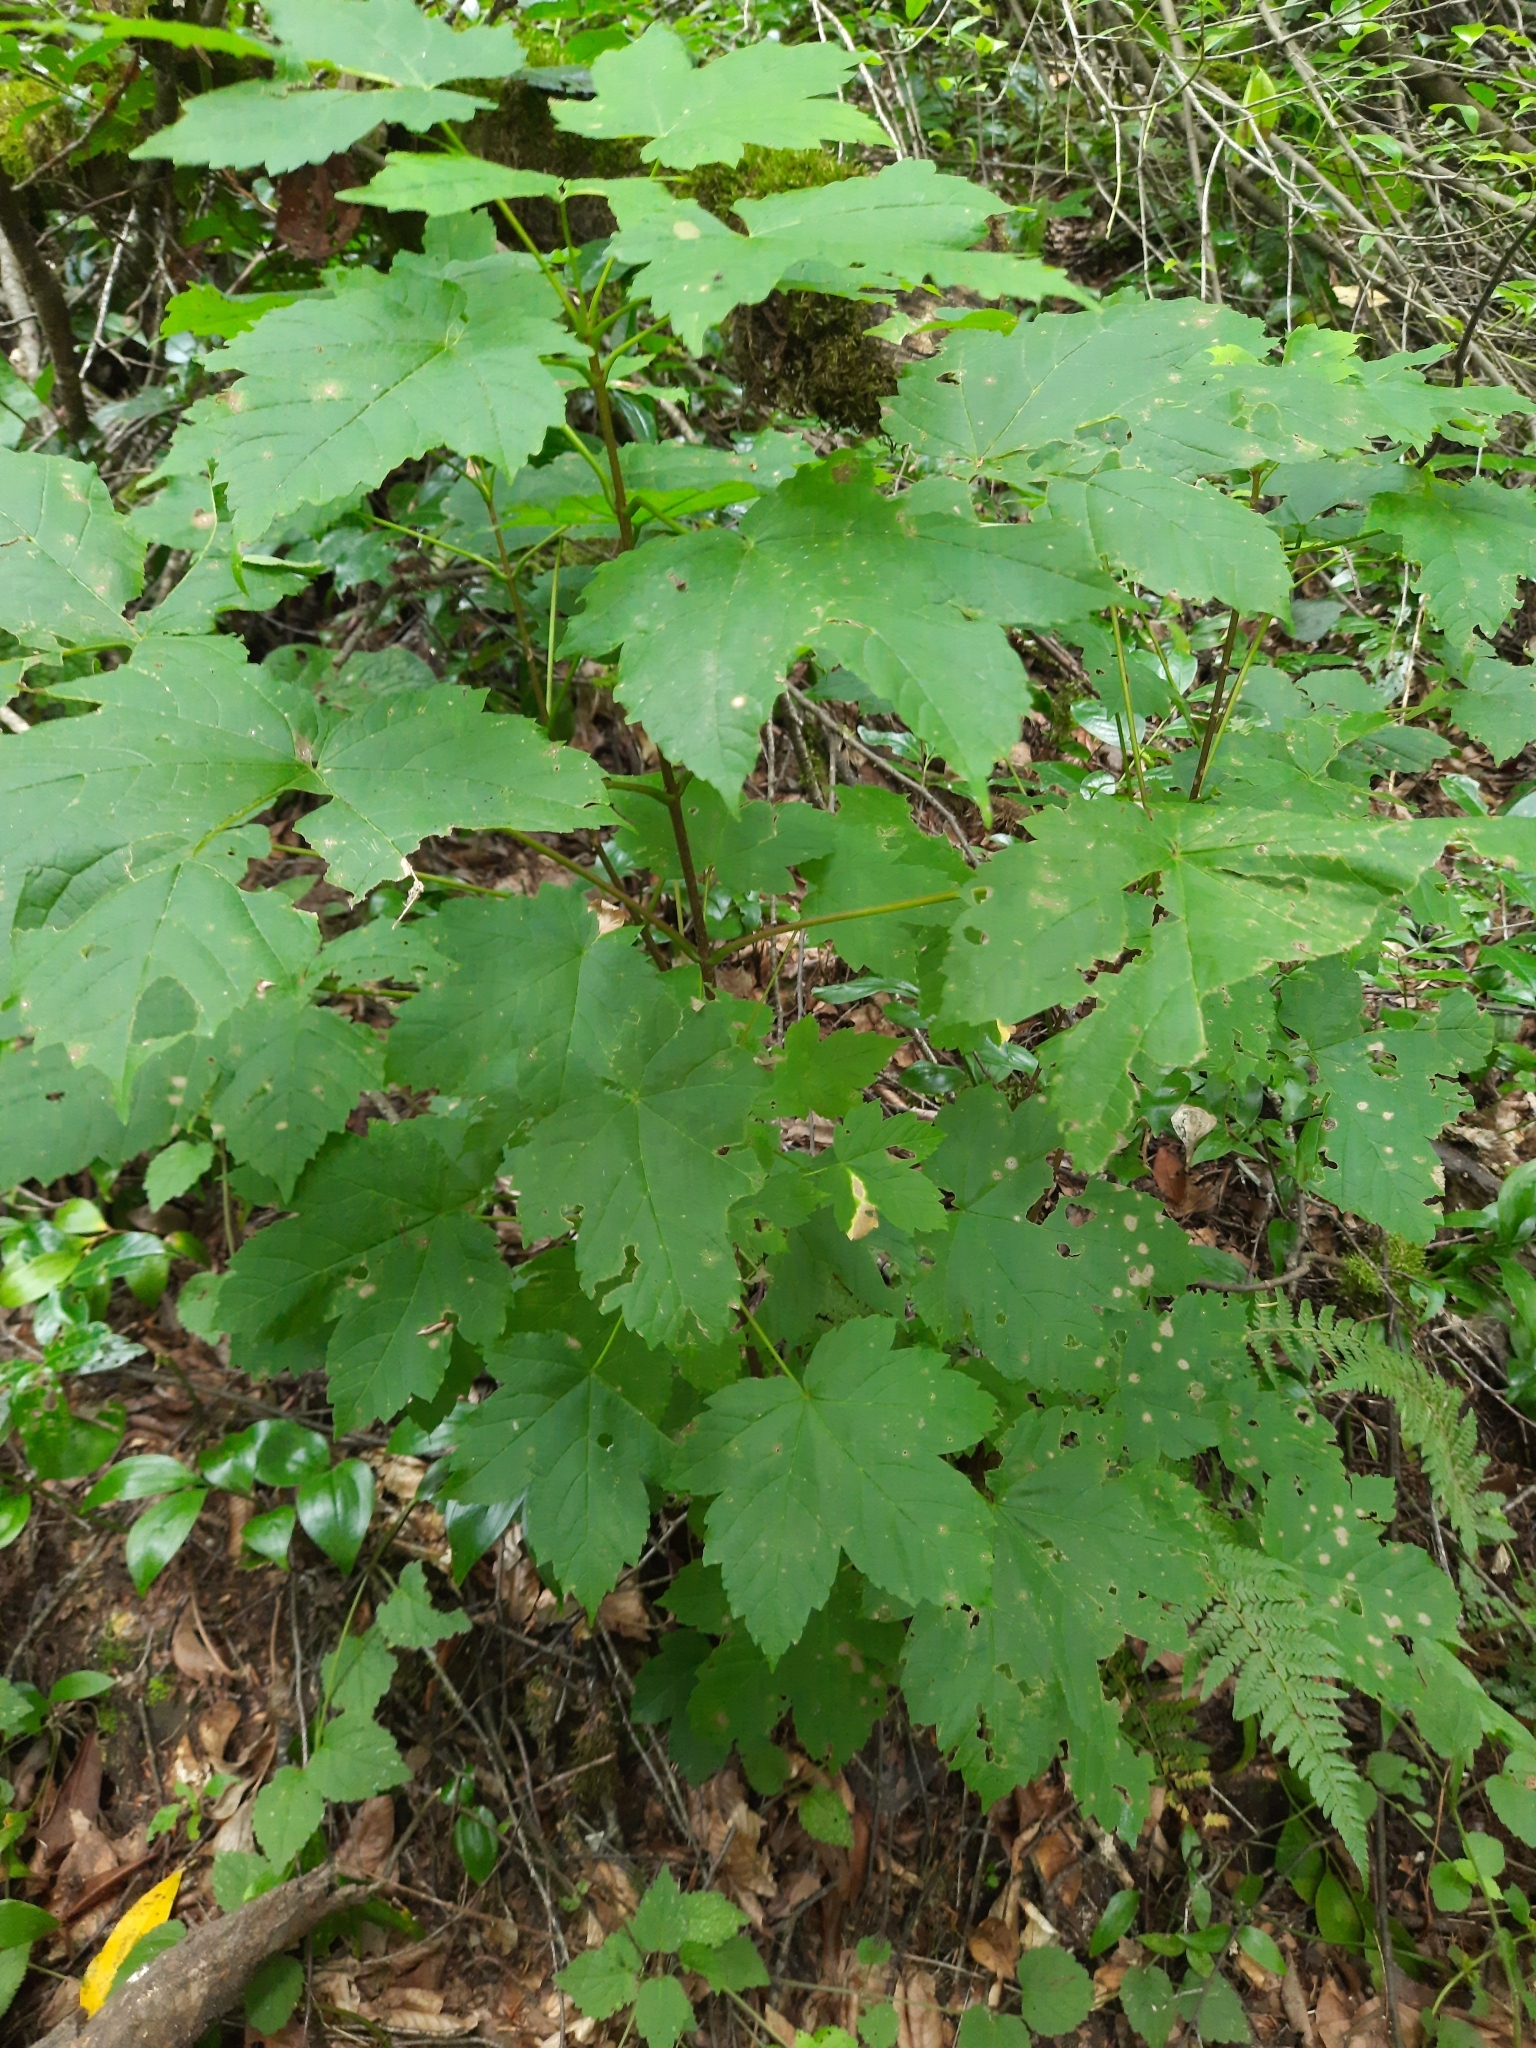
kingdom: Plantae
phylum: Tracheophyta
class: Magnoliopsida
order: Sapindales
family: Sapindaceae
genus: Acer
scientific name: Acer pseudoplatanus
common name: Sycamore
